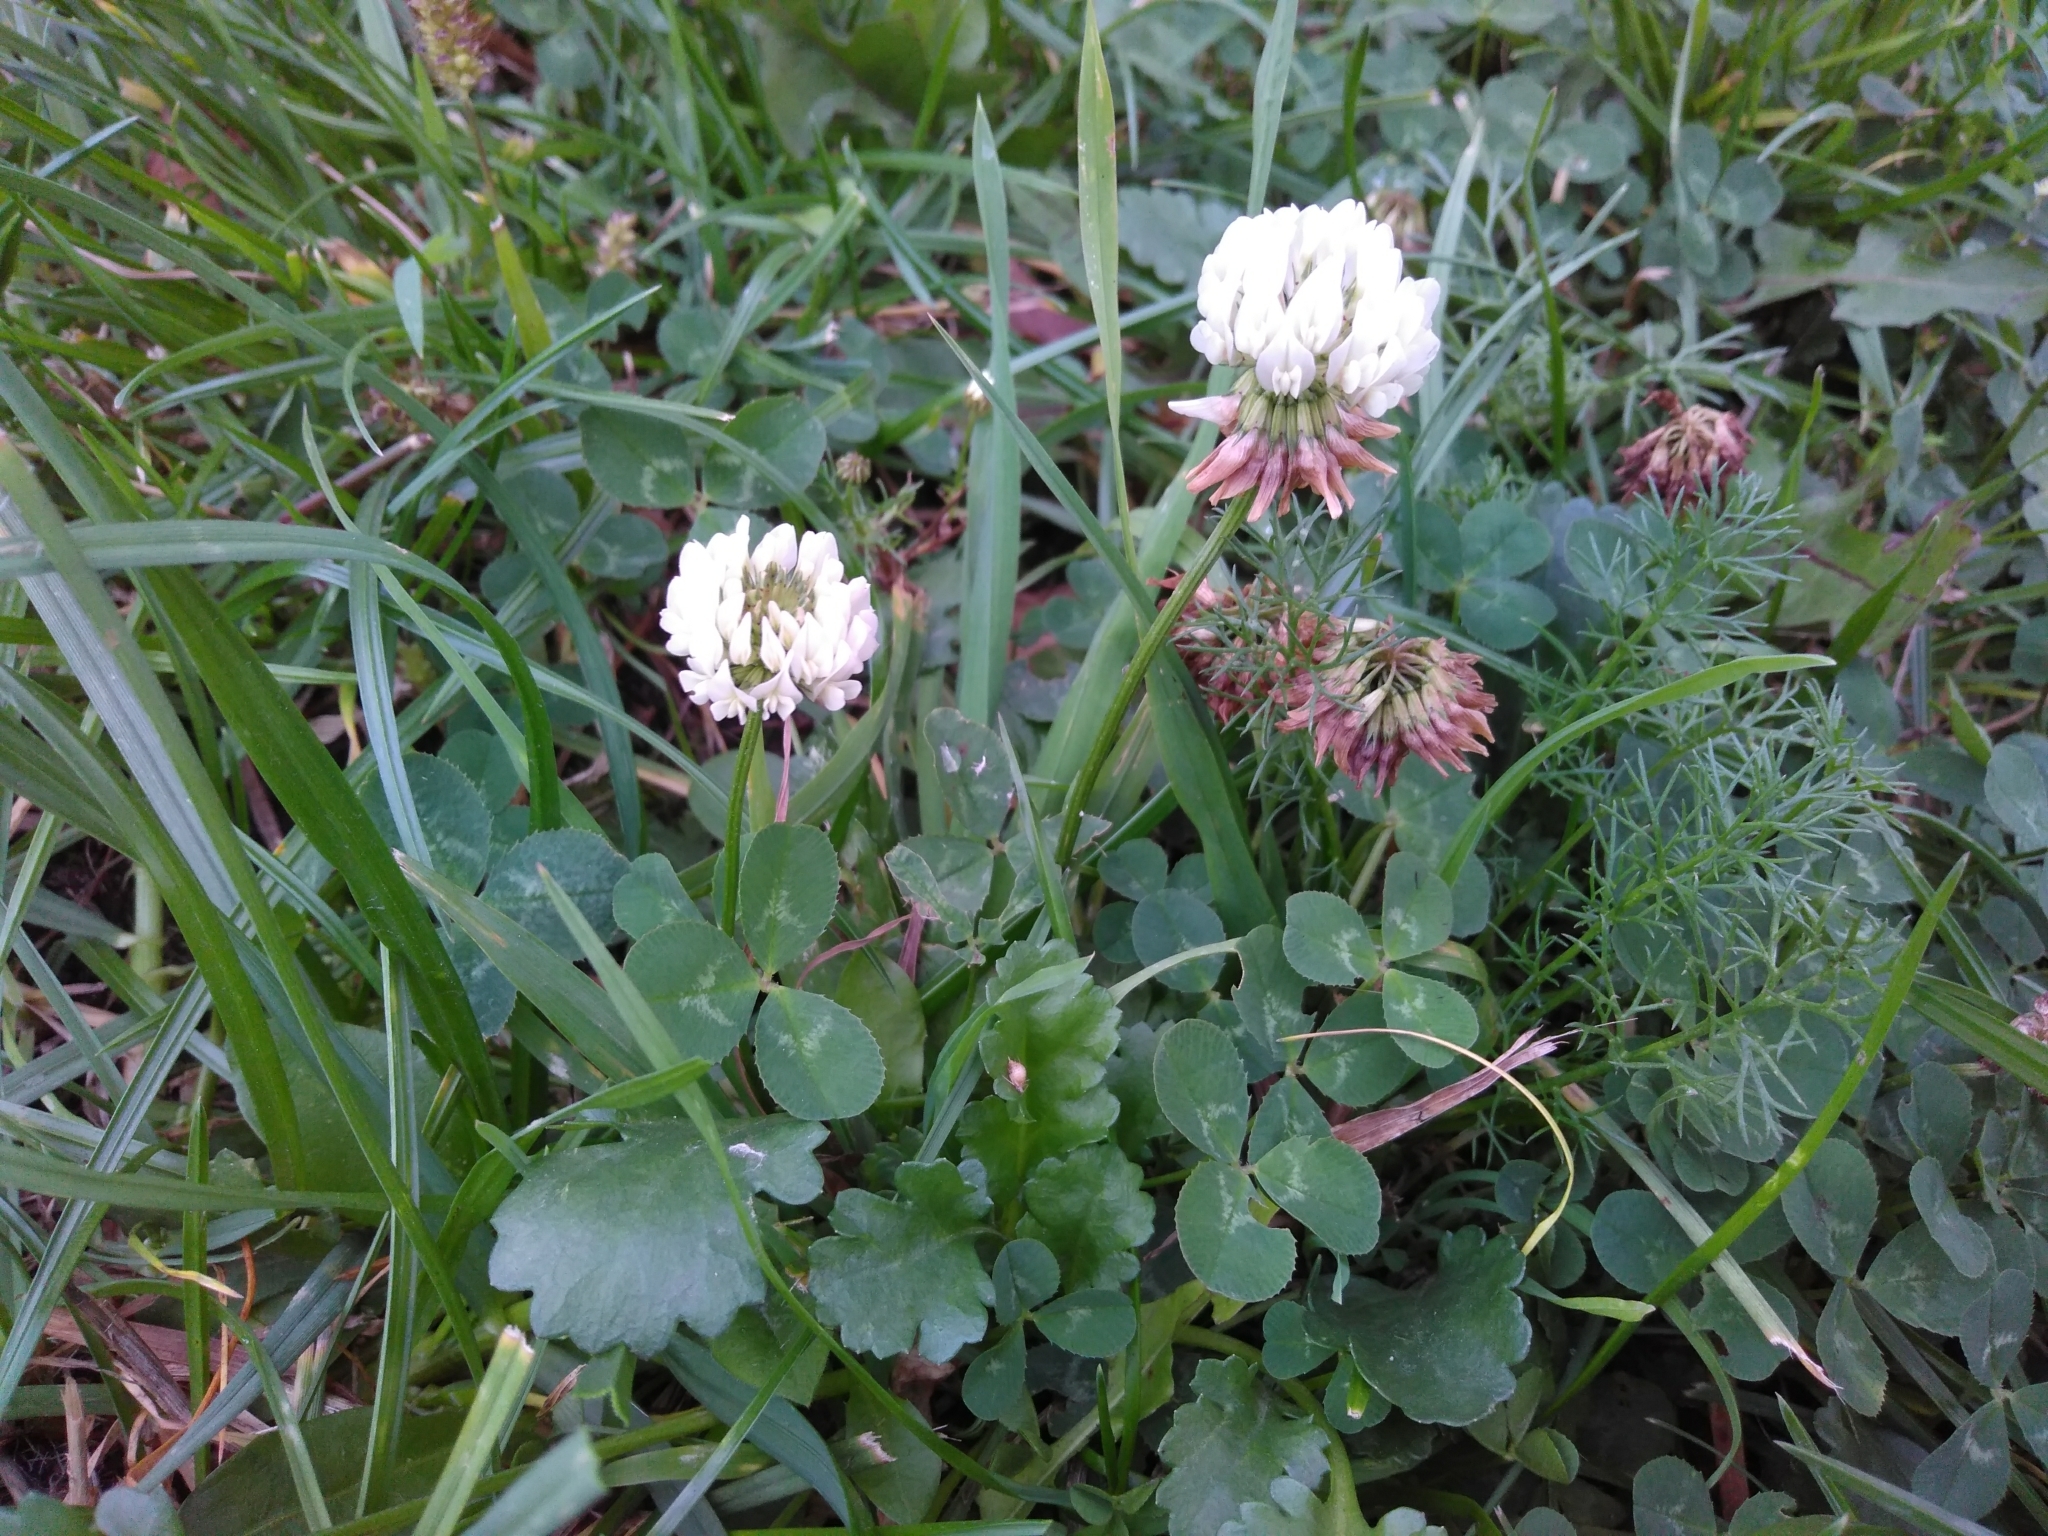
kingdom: Plantae
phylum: Tracheophyta
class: Magnoliopsida
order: Fabales
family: Fabaceae
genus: Trifolium
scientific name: Trifolium repens
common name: White clover
